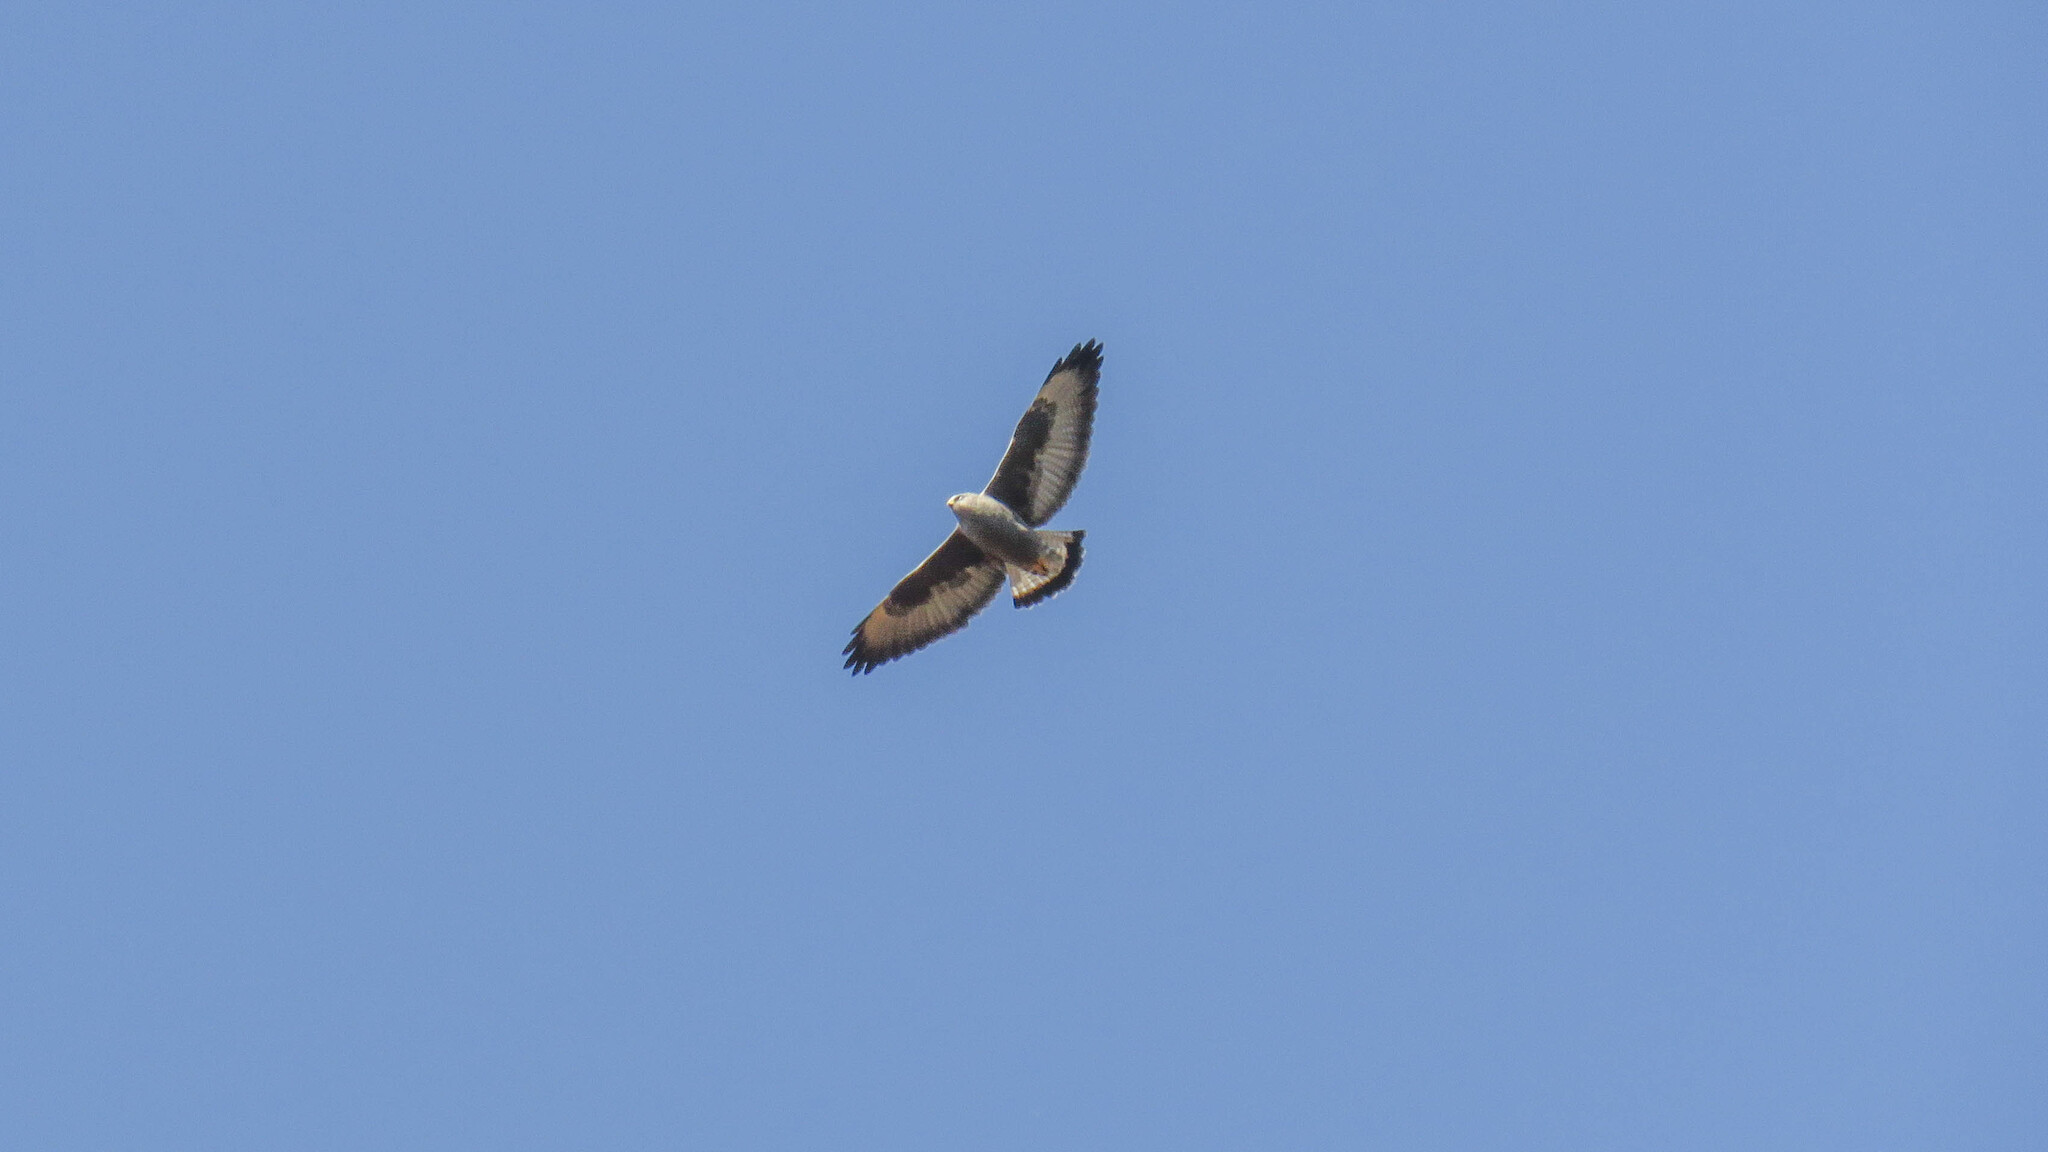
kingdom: Animalia
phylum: Chordata
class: Aves
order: Accipitriformes
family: Accipitridae
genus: Buteo
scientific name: Buteo polyosoma
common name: Variable hawk
